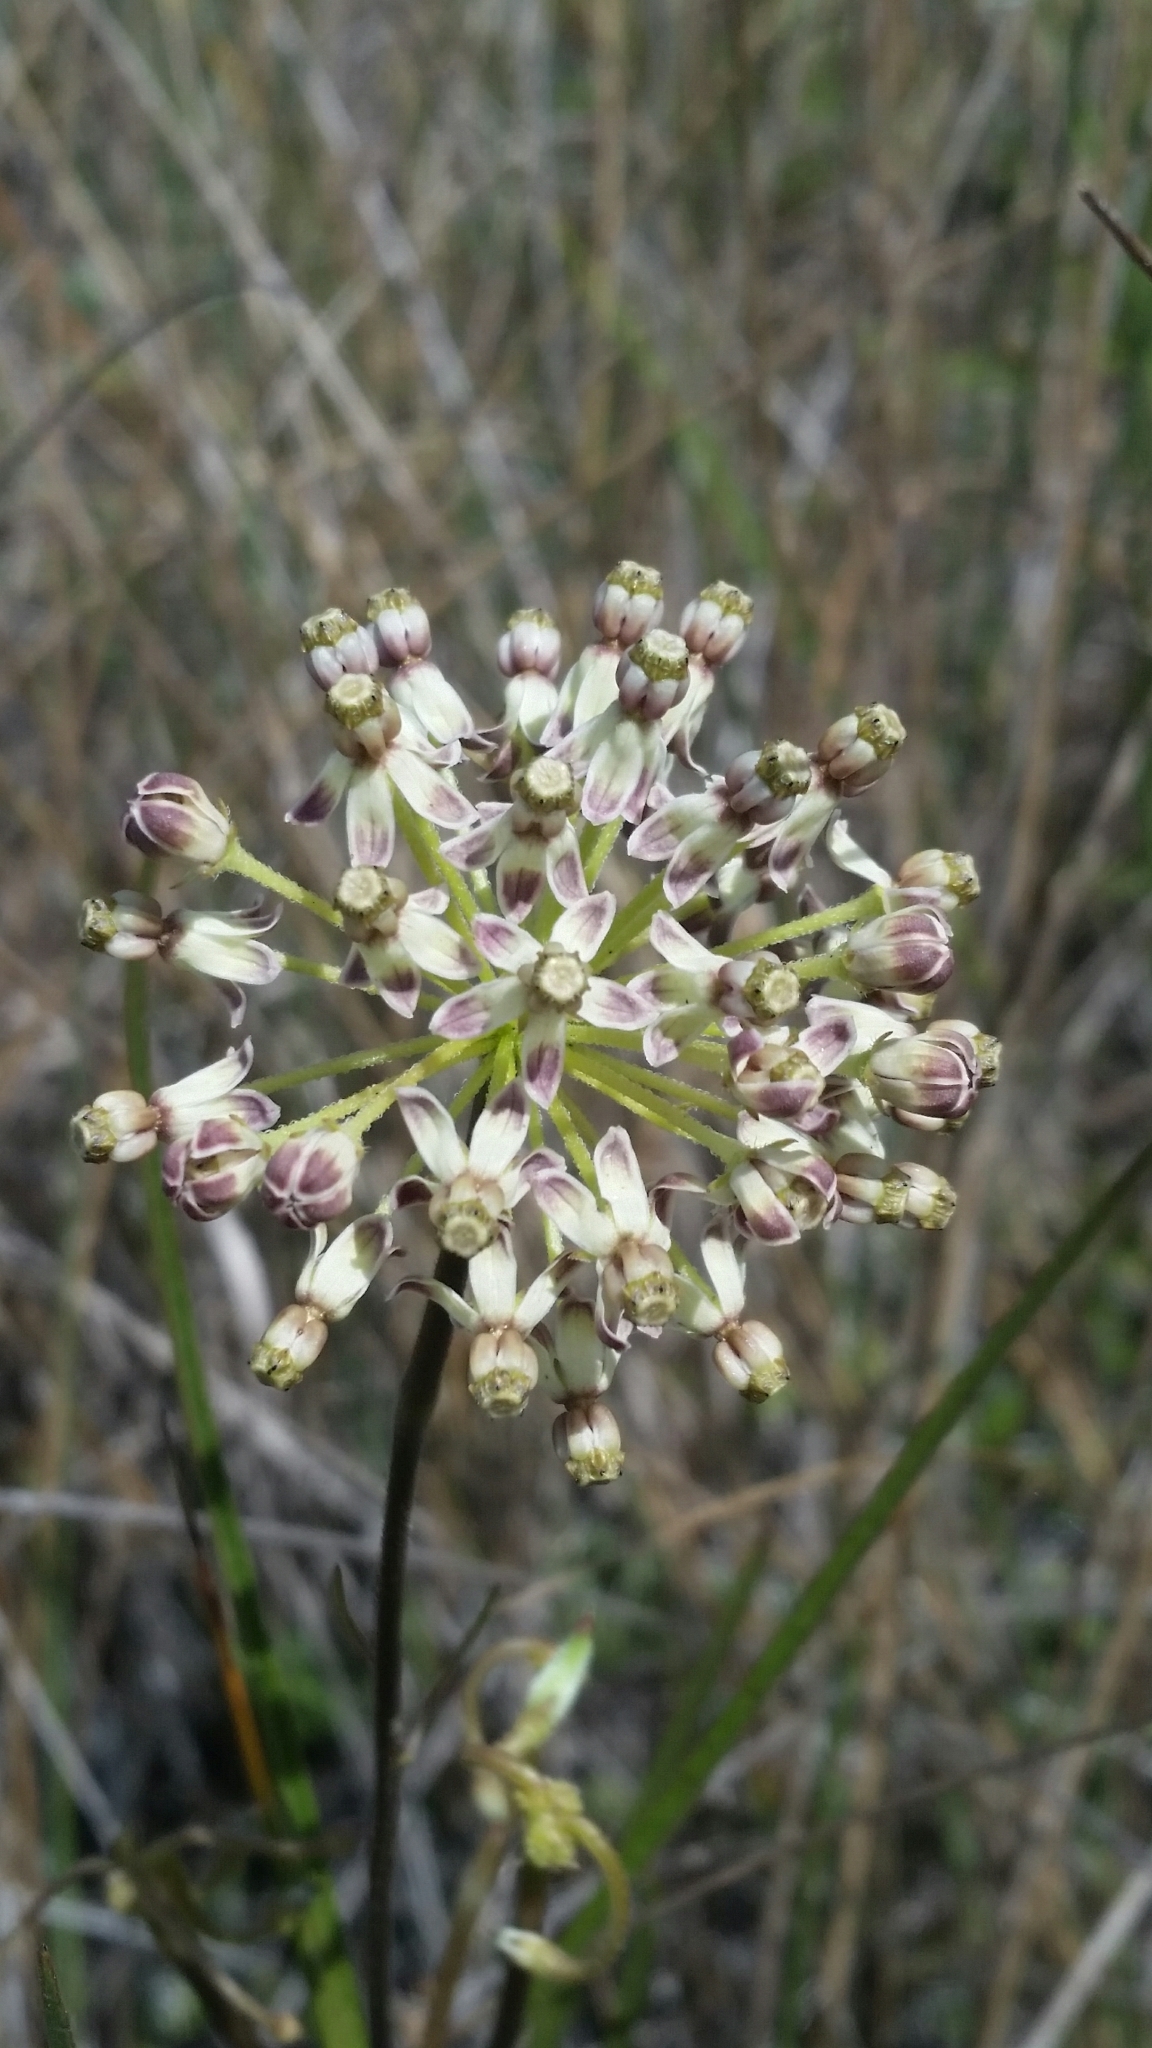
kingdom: Plantae
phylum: Tracheophyta
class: Magnoliopsida
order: Gentianales
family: Apocynaceae
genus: Asclepias
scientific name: Asclepias longifolia
